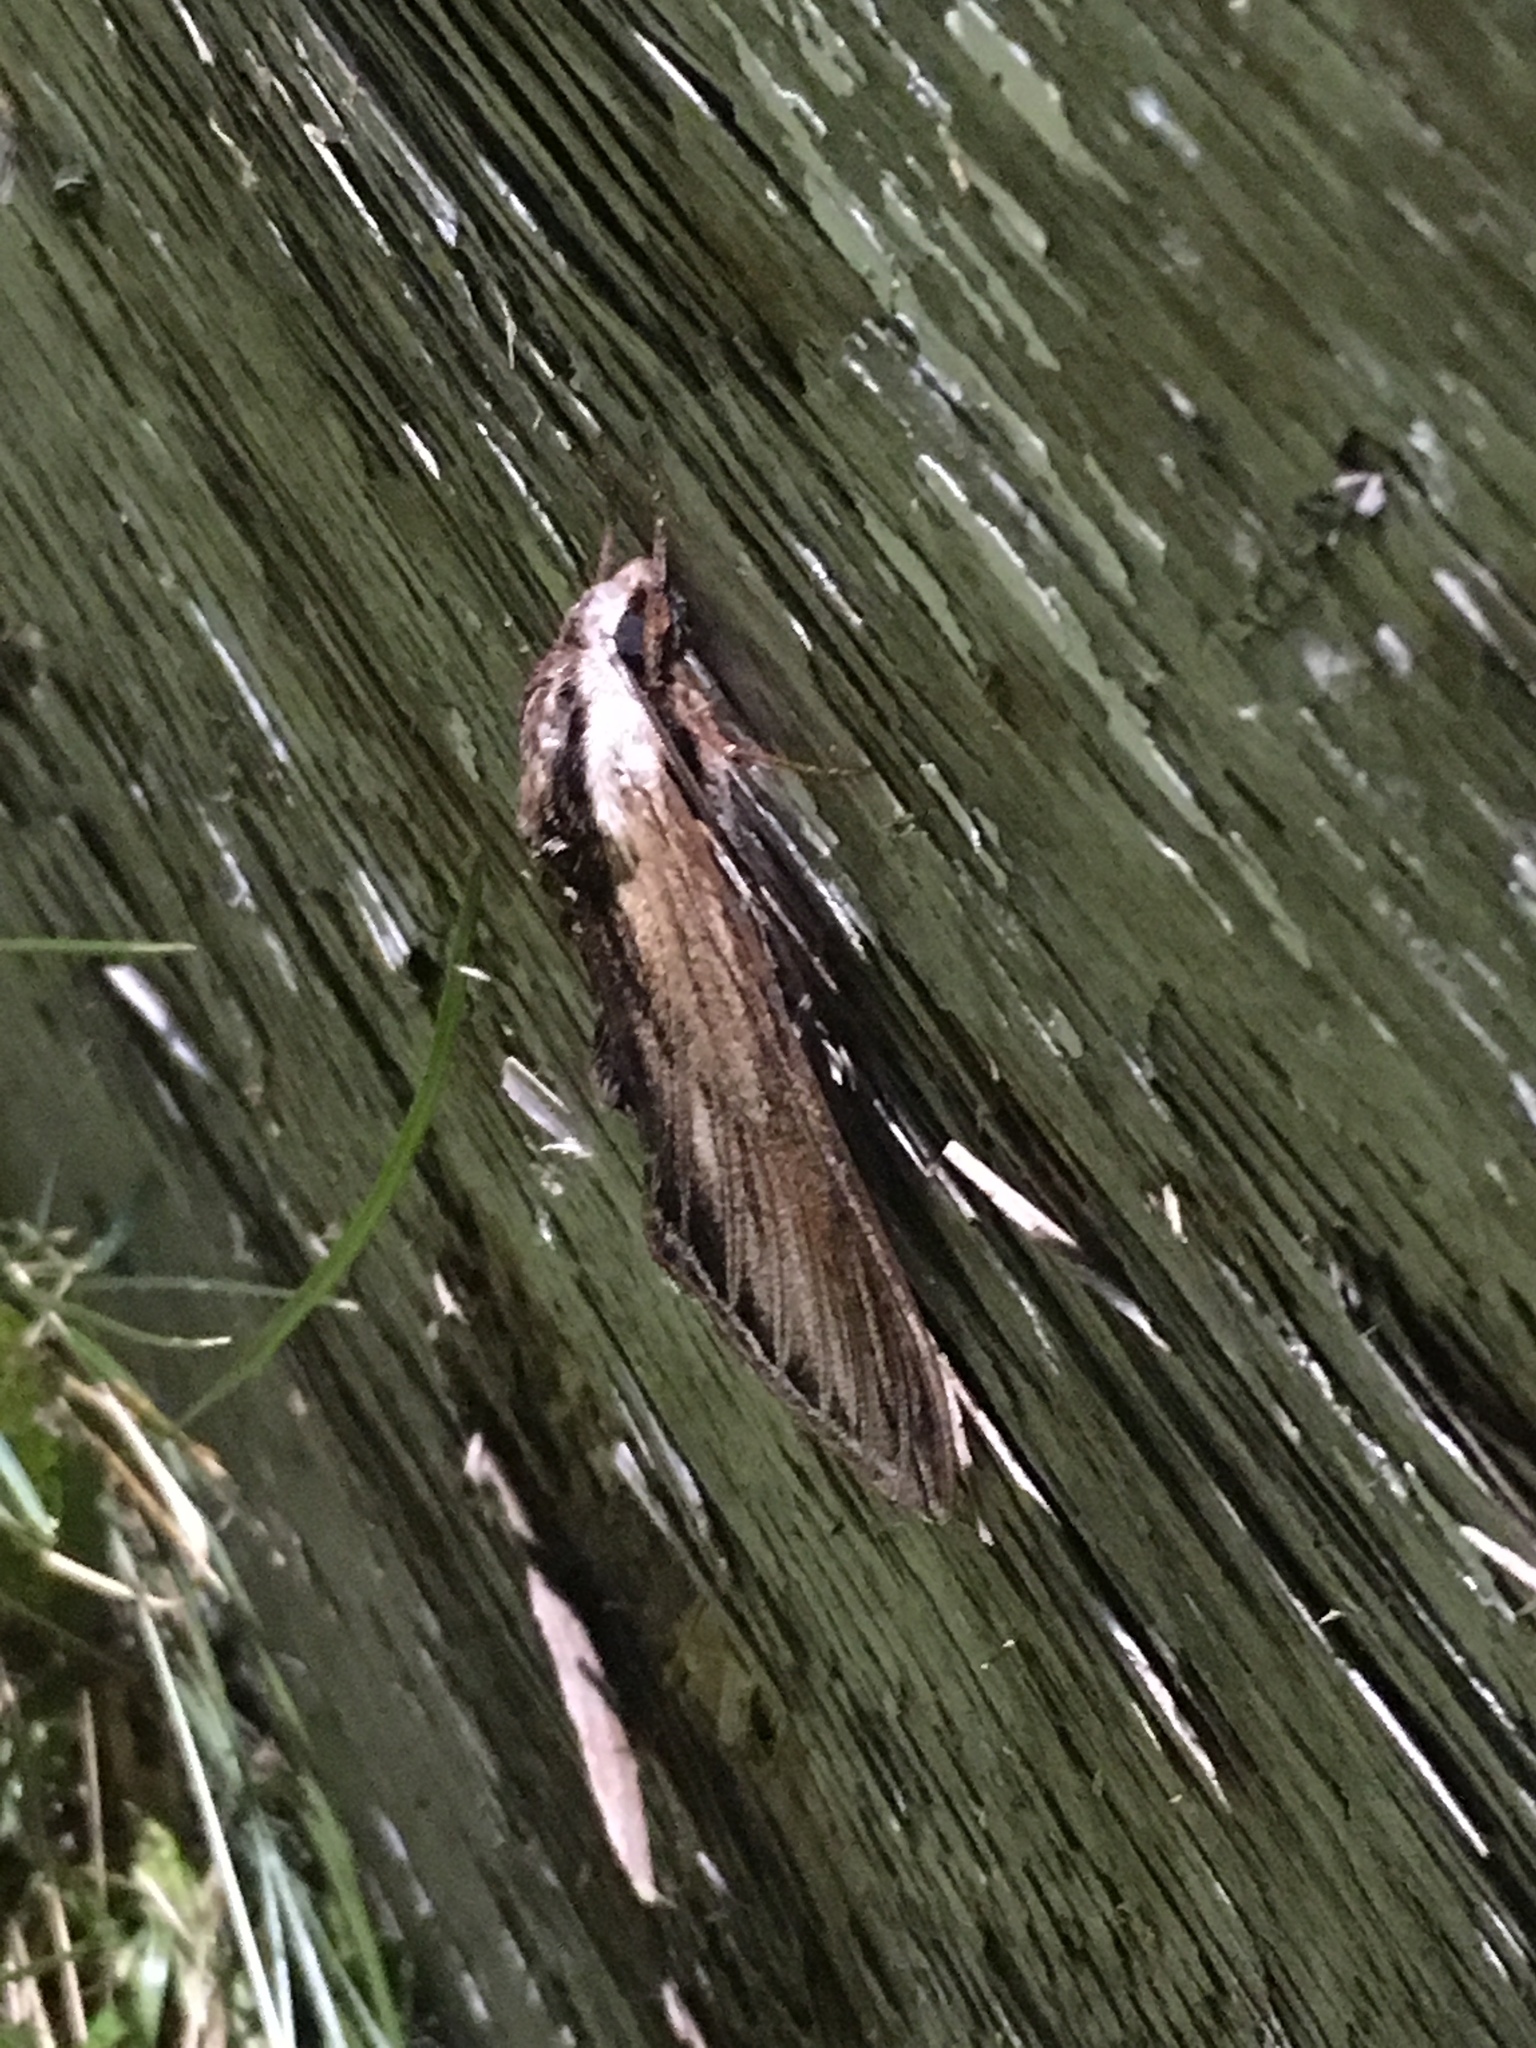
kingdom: Animalia
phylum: Arthropoda
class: Insecta
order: Lepidoptera
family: Sphingidae
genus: Sphinx
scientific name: Sphinx kalmiae
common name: Laurel sphinx
